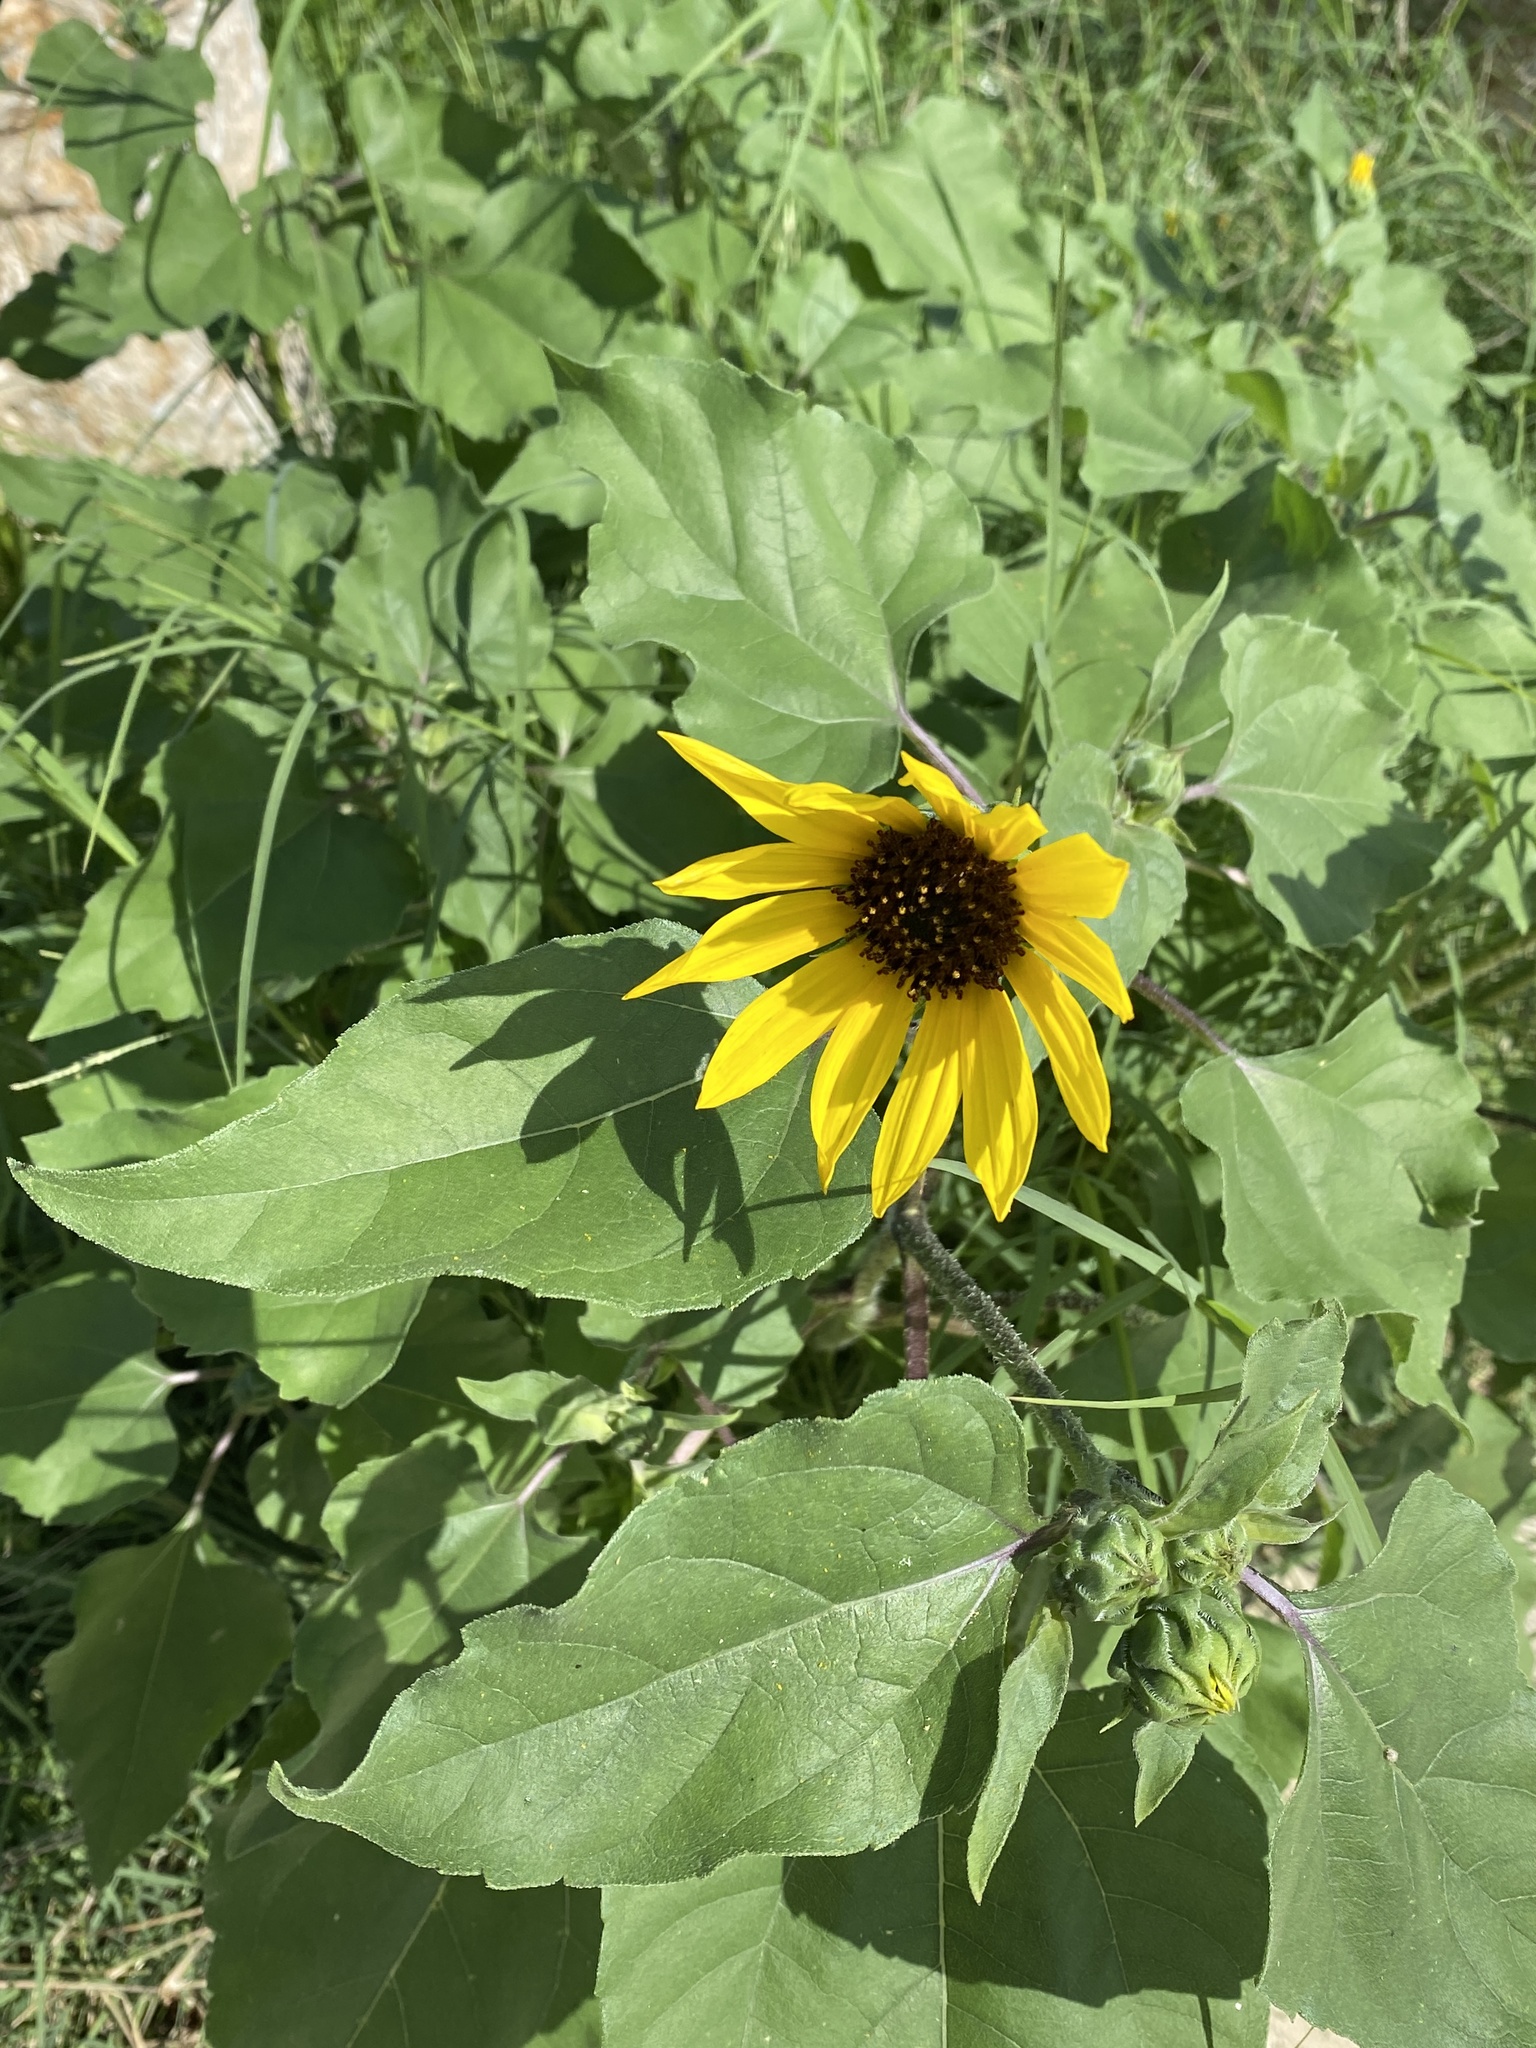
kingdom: Plantae
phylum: Tracheophyta
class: Magnoliopsida
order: Asterales
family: Asteraceae
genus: Helianthus
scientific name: Helianthus annuus
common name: Sunflower
